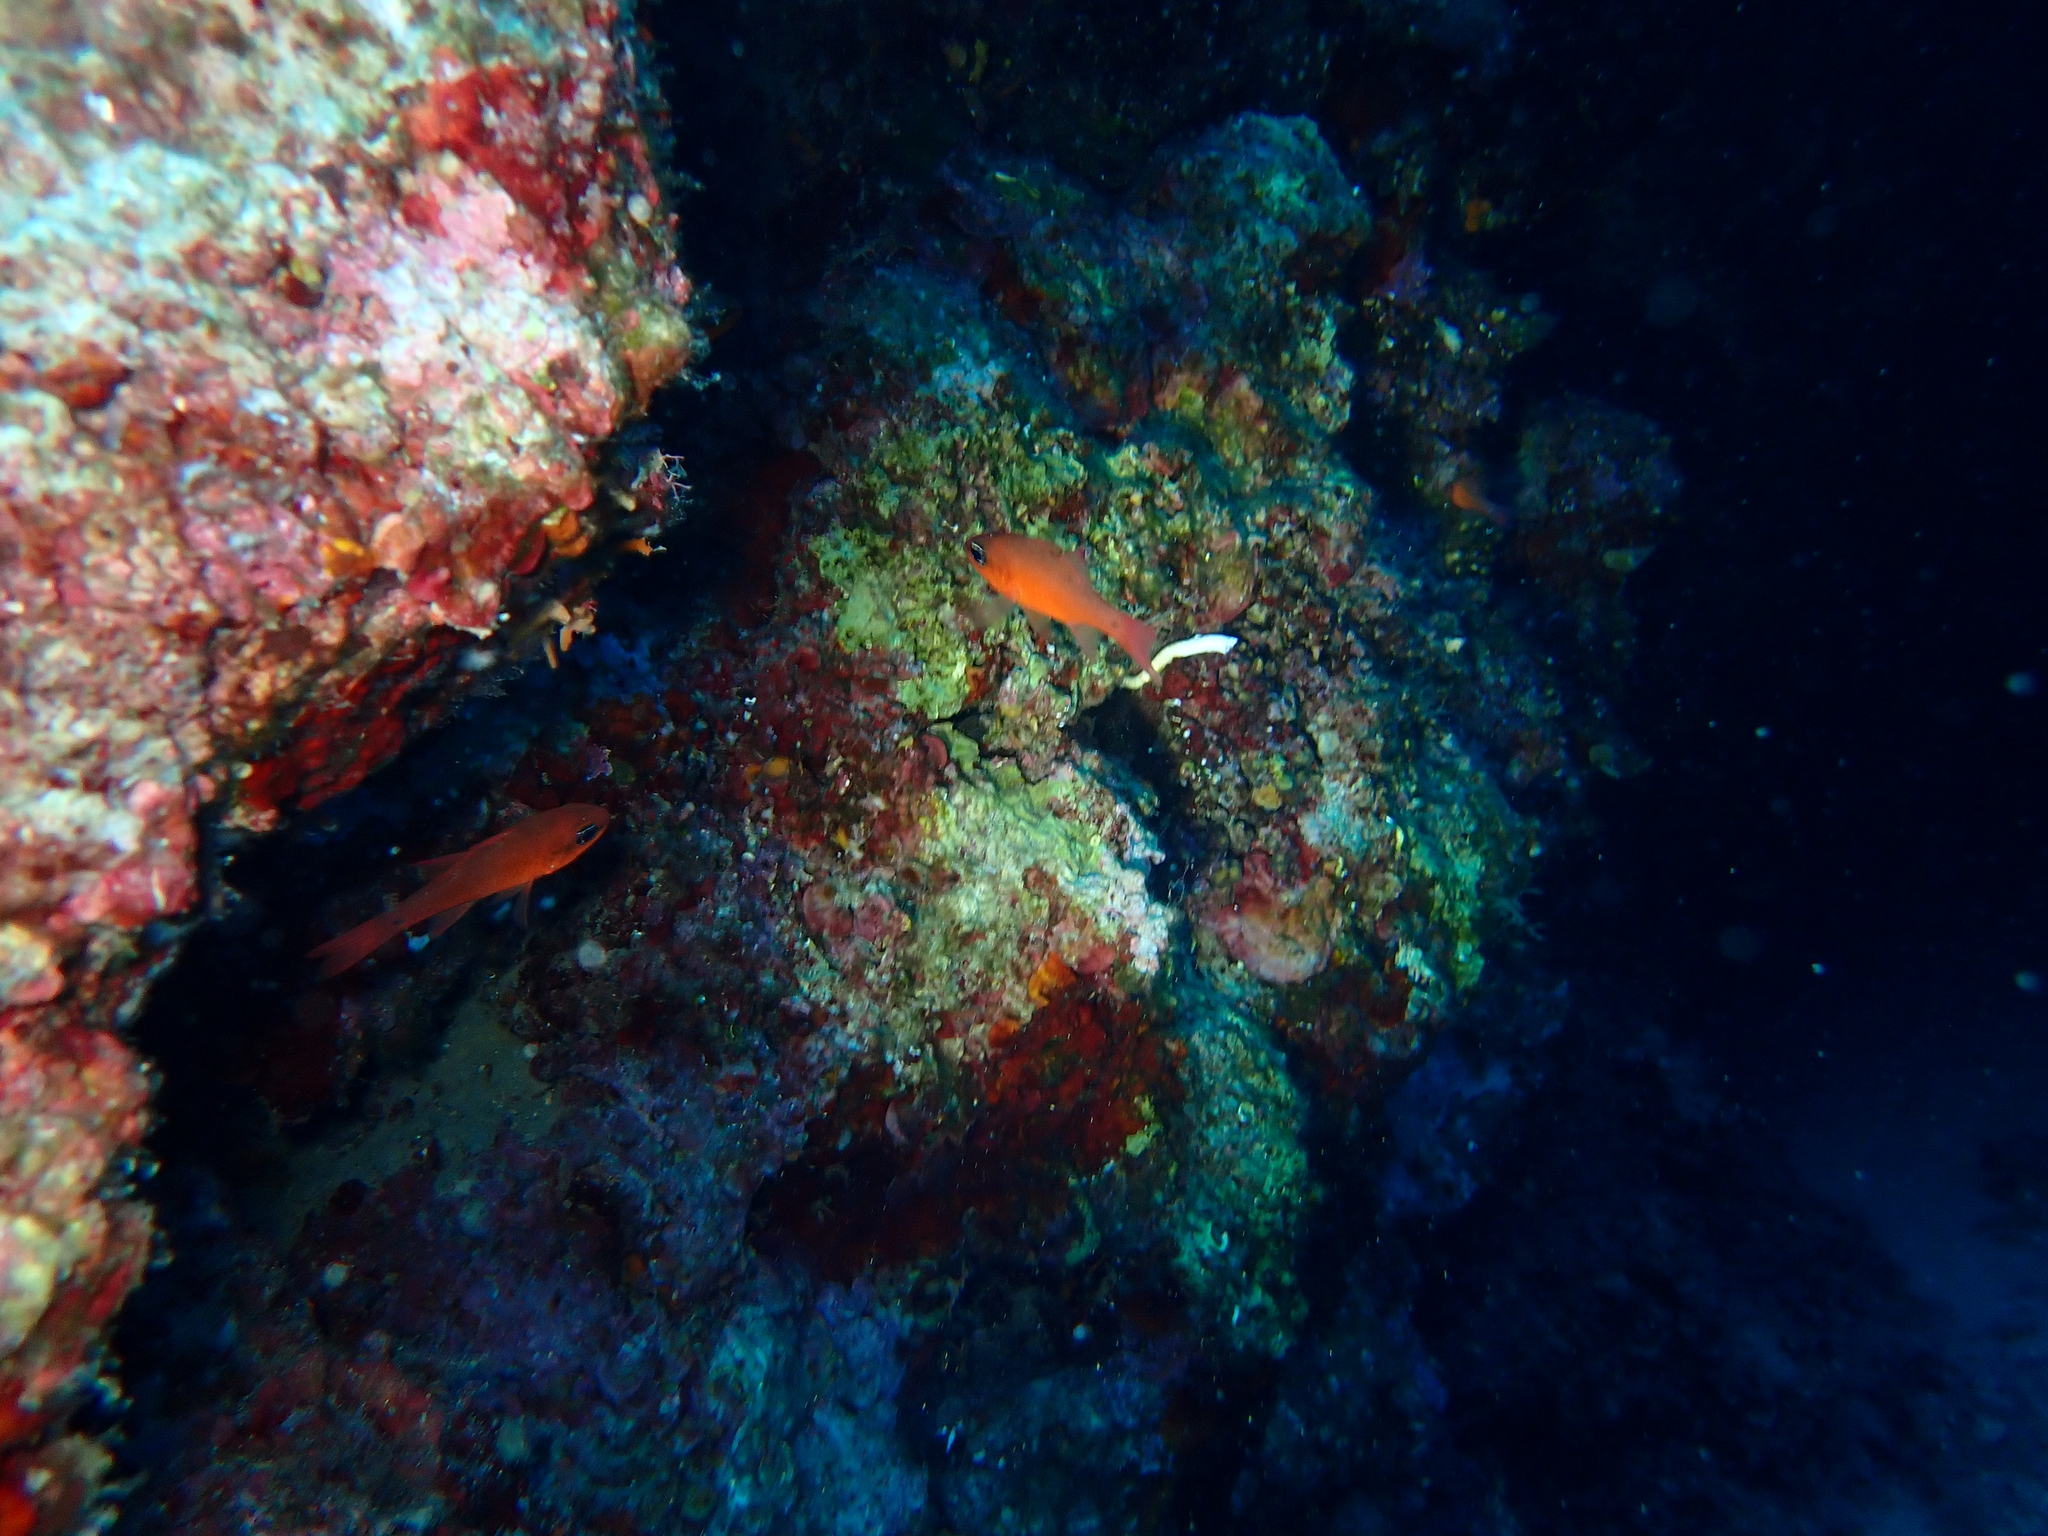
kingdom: Animalia
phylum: Chordata
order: Perciformes
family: Apogonidae
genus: Apogon
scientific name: Apogon imberbis
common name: Cardinal fish
